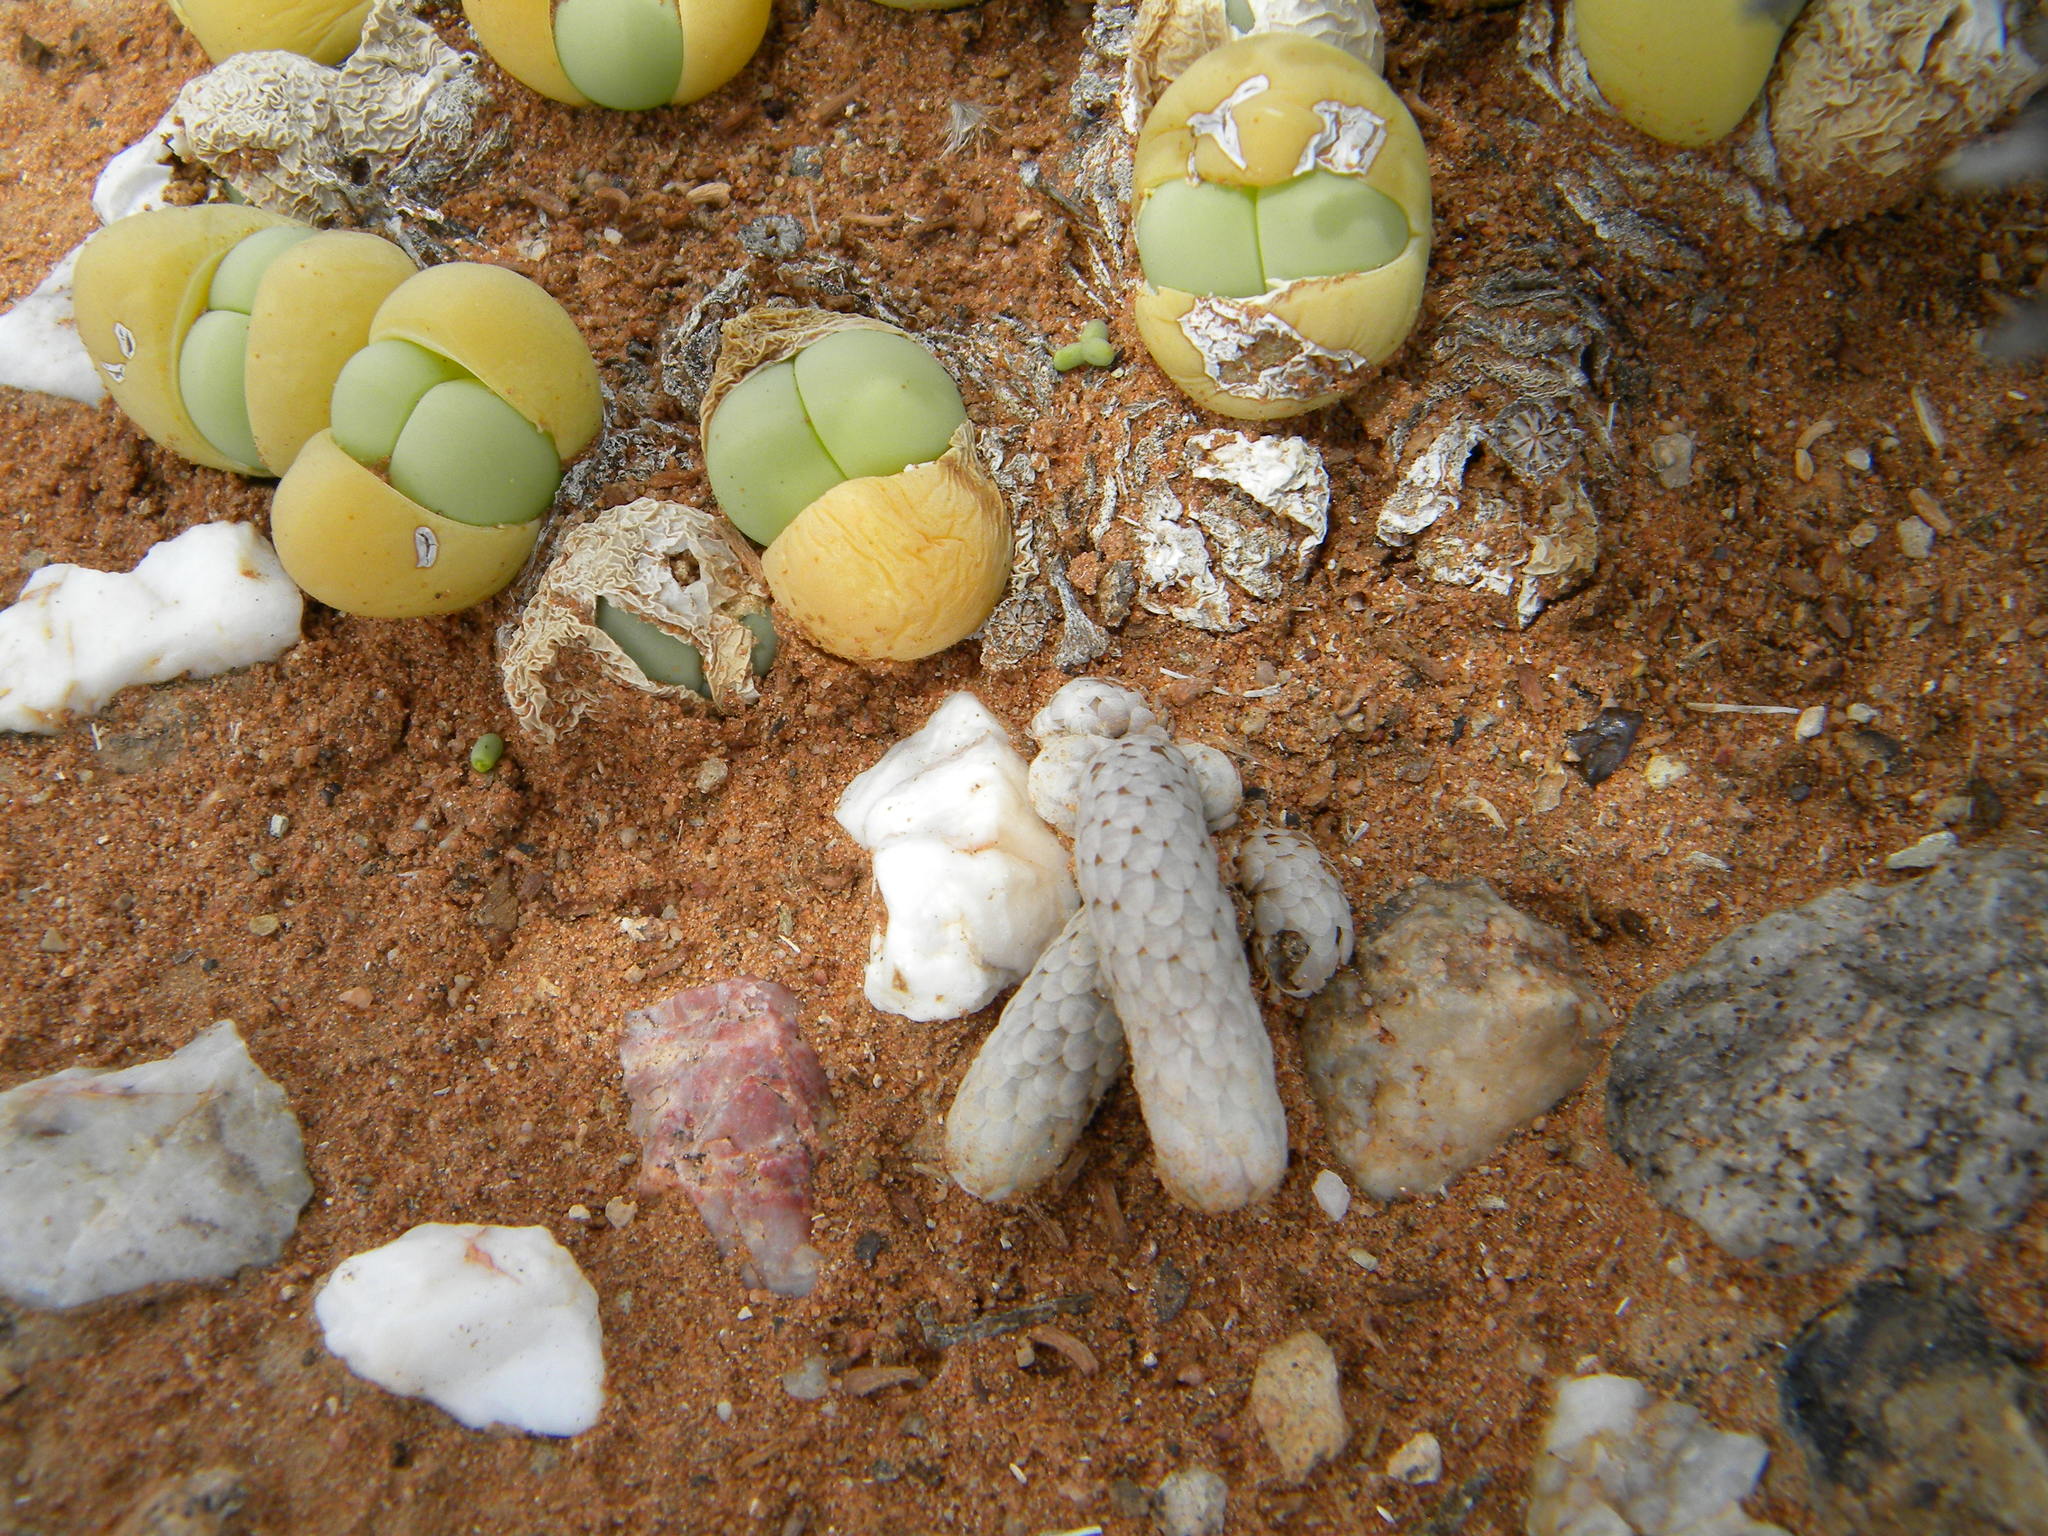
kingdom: Plantae
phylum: Tracheophyta
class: Magnoliopsida
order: Caryophyllales
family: Anacampserotaceae
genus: Avonia
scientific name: Avonia papyracea
